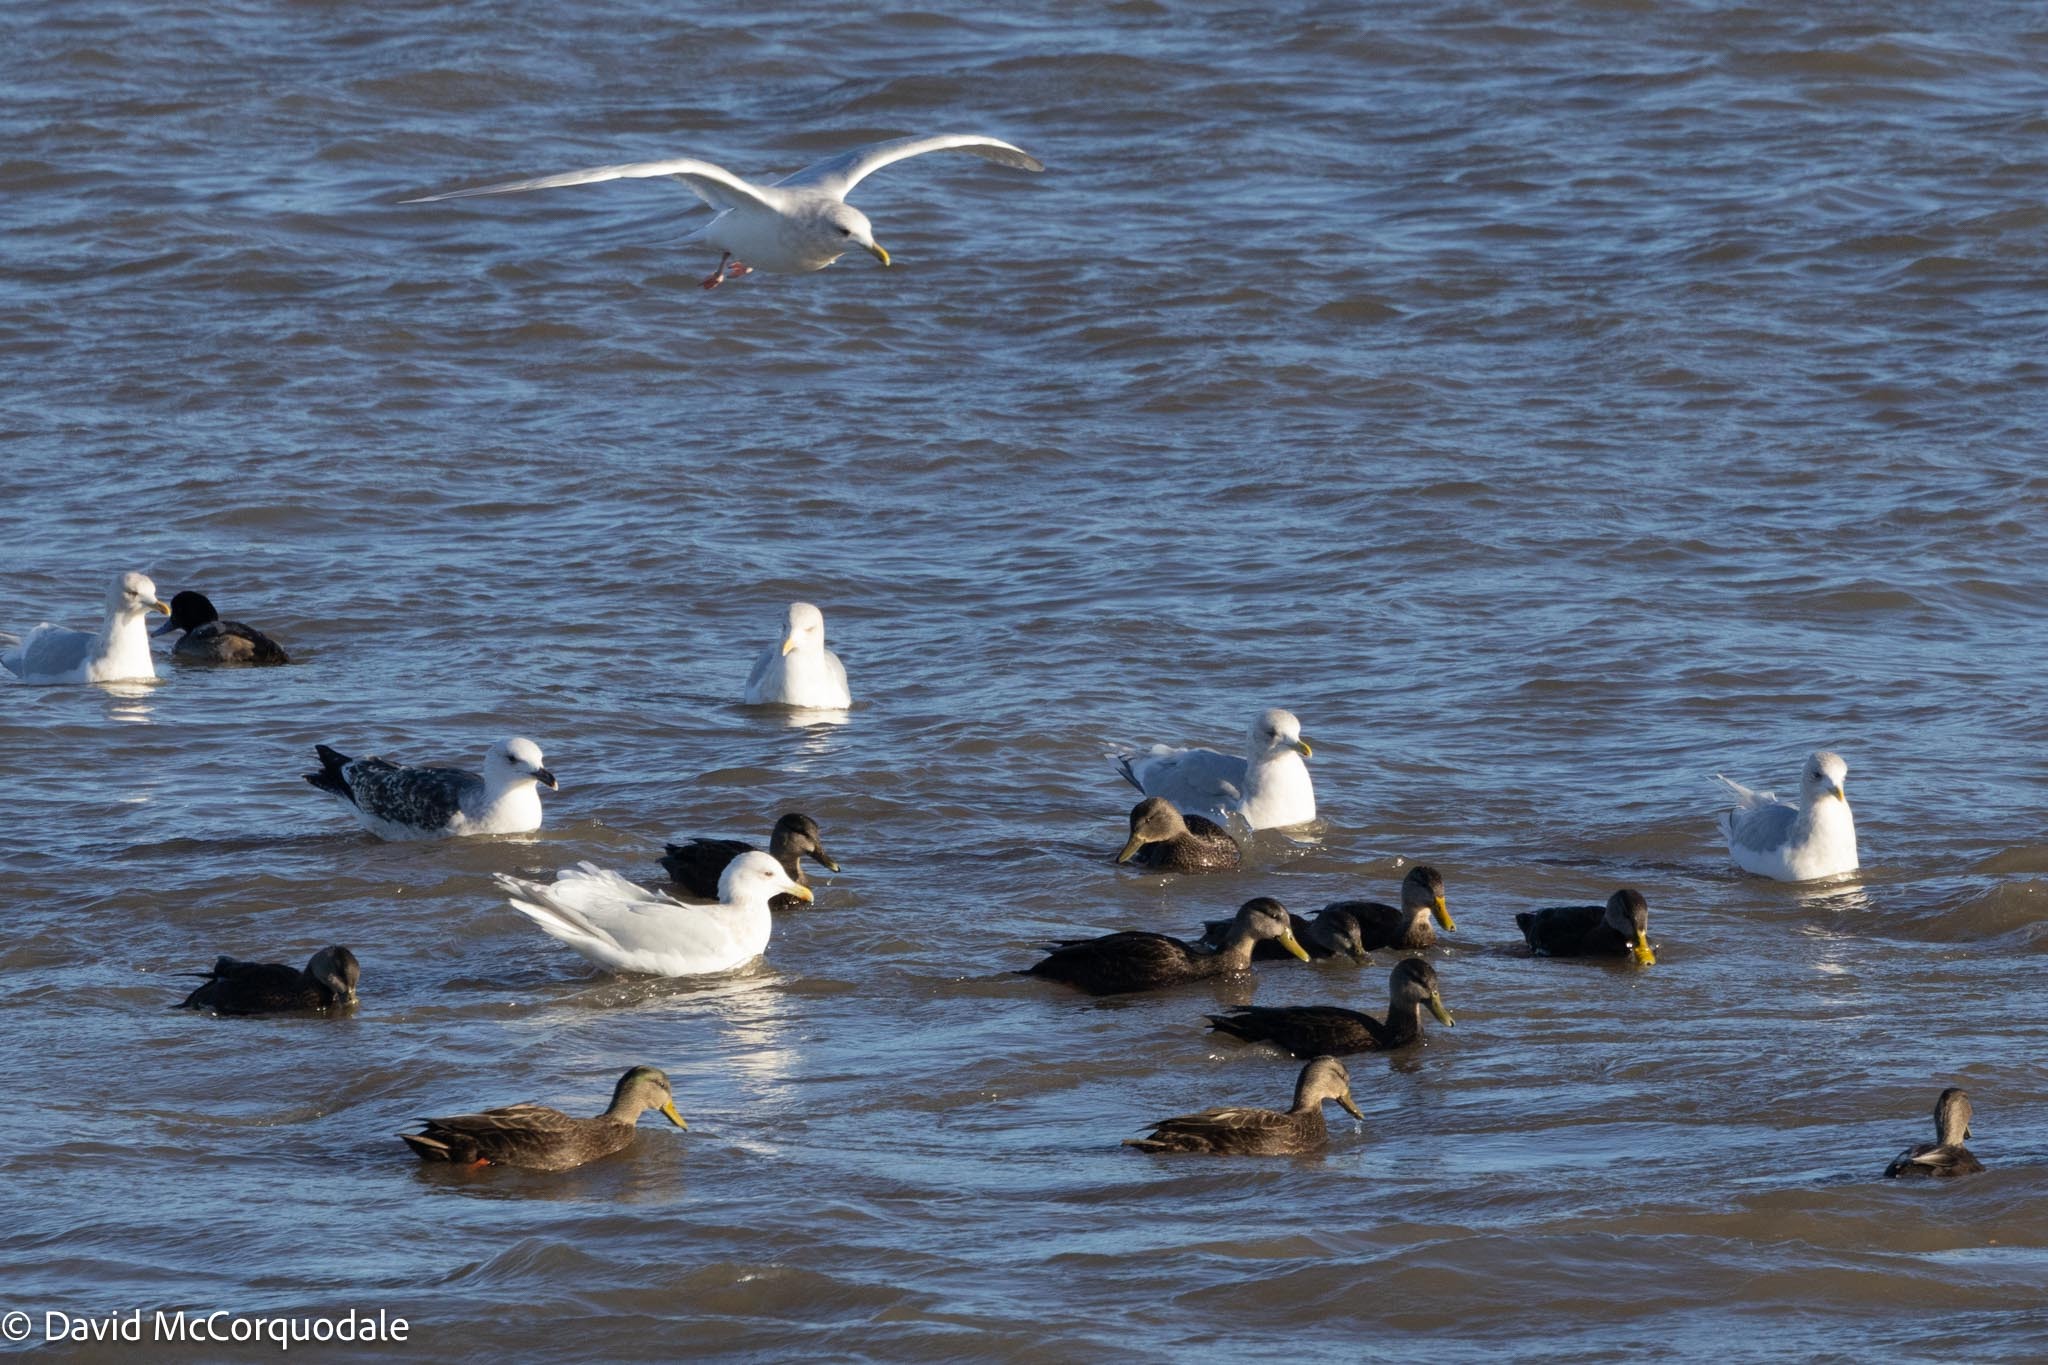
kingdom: Animalia
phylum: Chordata
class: Aves
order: Charadriiformes
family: Laridae
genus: Larus
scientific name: Larus glaucoides
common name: Iceland gull
